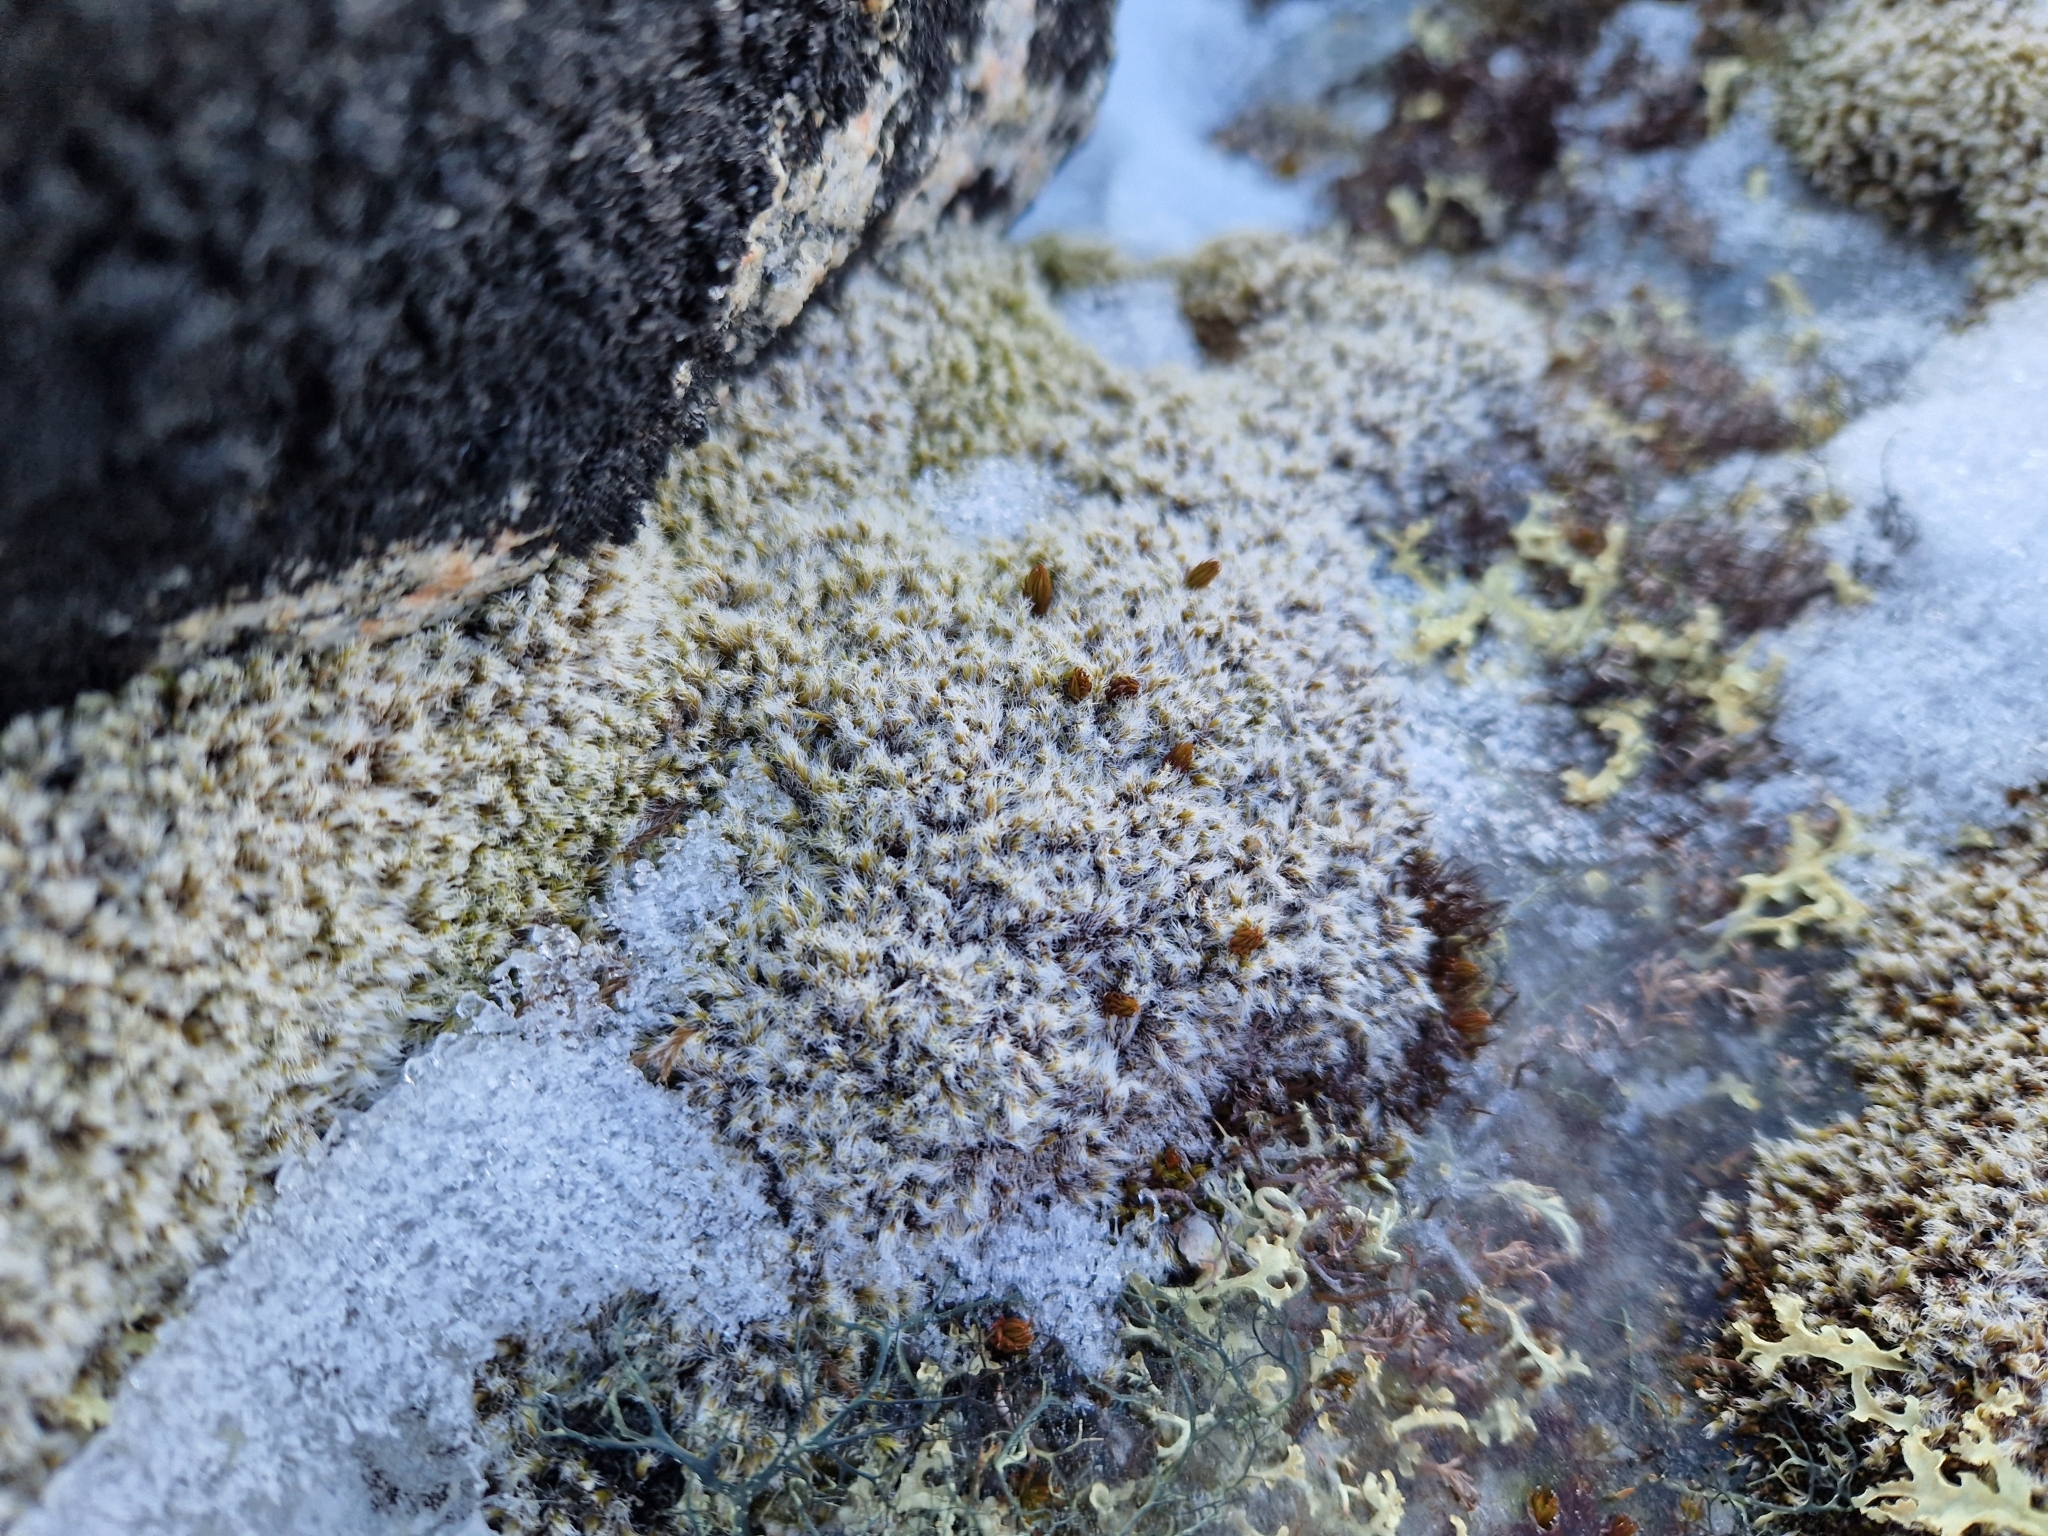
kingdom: Plantae
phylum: Bryophyta
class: Bryopsida
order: Grimmiales
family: Grimmiaceae
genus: Racomitrium
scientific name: Racomitrium lanuginosum
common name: Hoary rock moss
